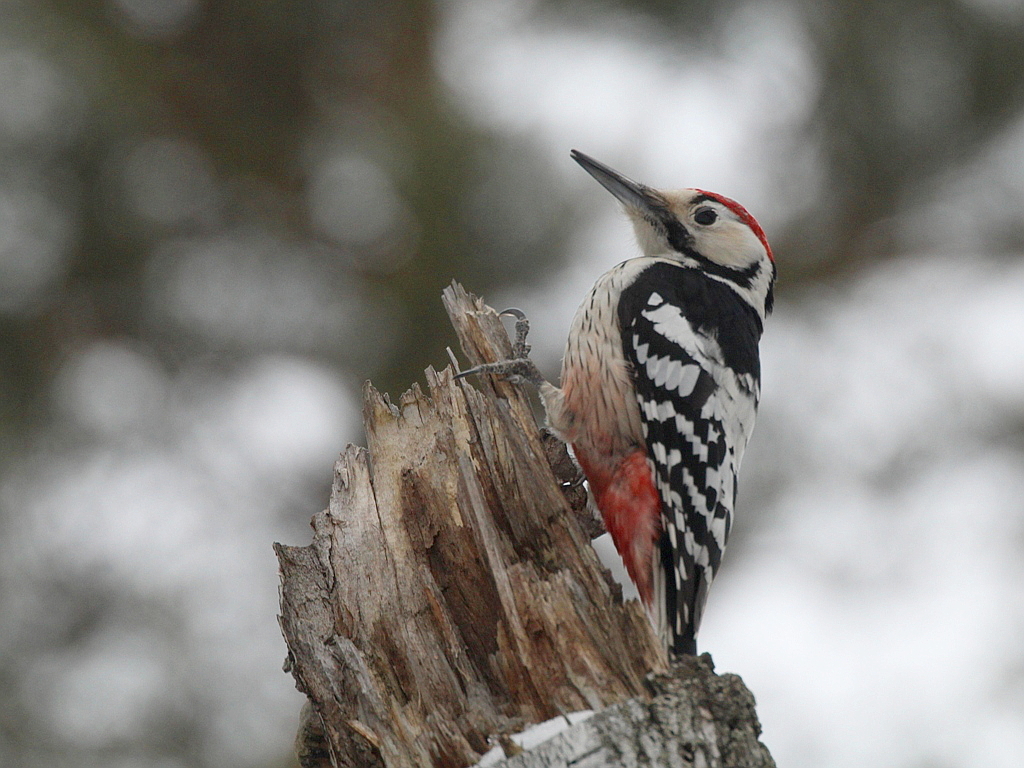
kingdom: Animalia
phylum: Chordata
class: Aves
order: Piciformes
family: Picidae
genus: Dendrocopos
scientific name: Dendrocopos leucotos
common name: White-backed woodpecker
